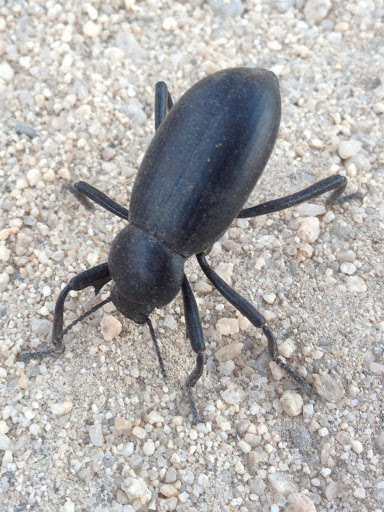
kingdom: Animalia
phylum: Arthropoda
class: Insecta
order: Coleoptera
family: Tenebrionidae
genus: Eleodes
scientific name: Eleodes armata
